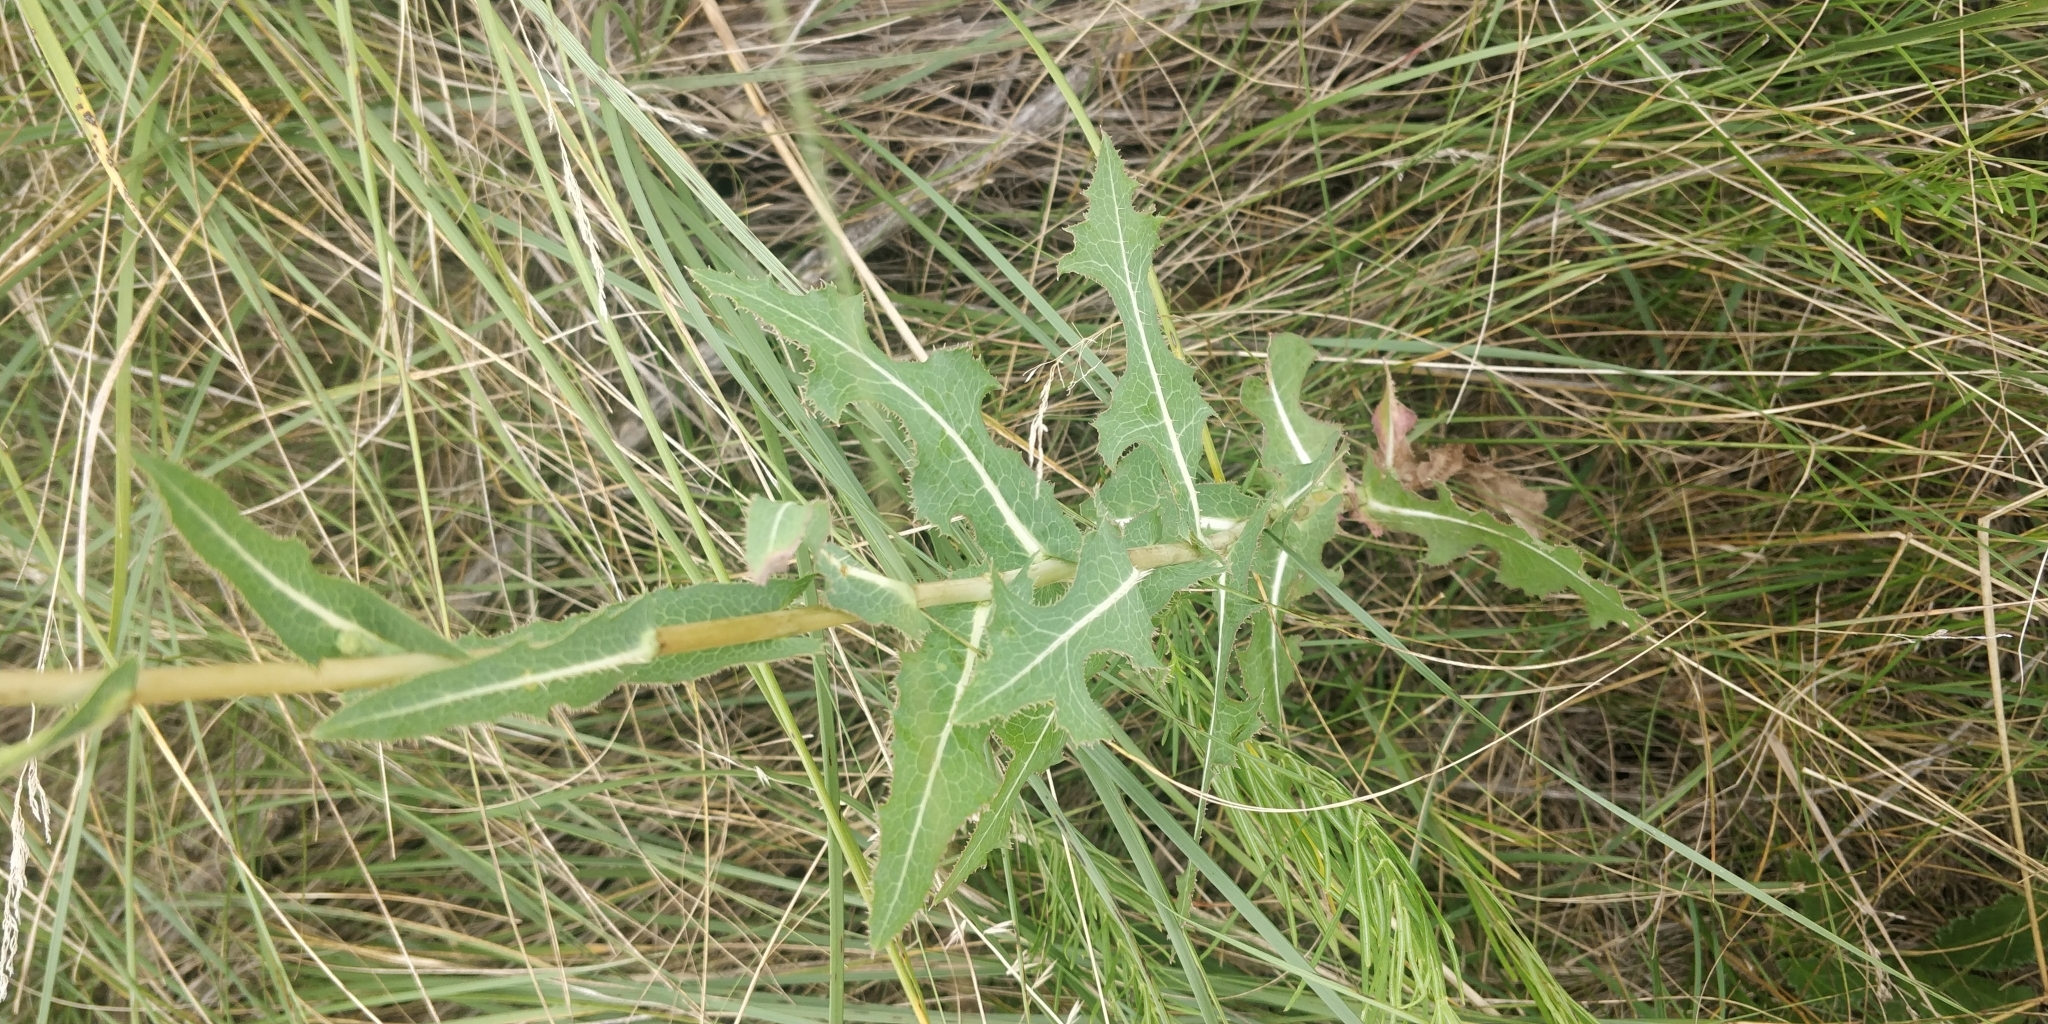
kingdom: Plantae
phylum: Tracheophyta
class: Magnoliopsida
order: Asterales
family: Asteraceae
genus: Lactuca
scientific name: Lactuca serriola
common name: Prickly lettuce
